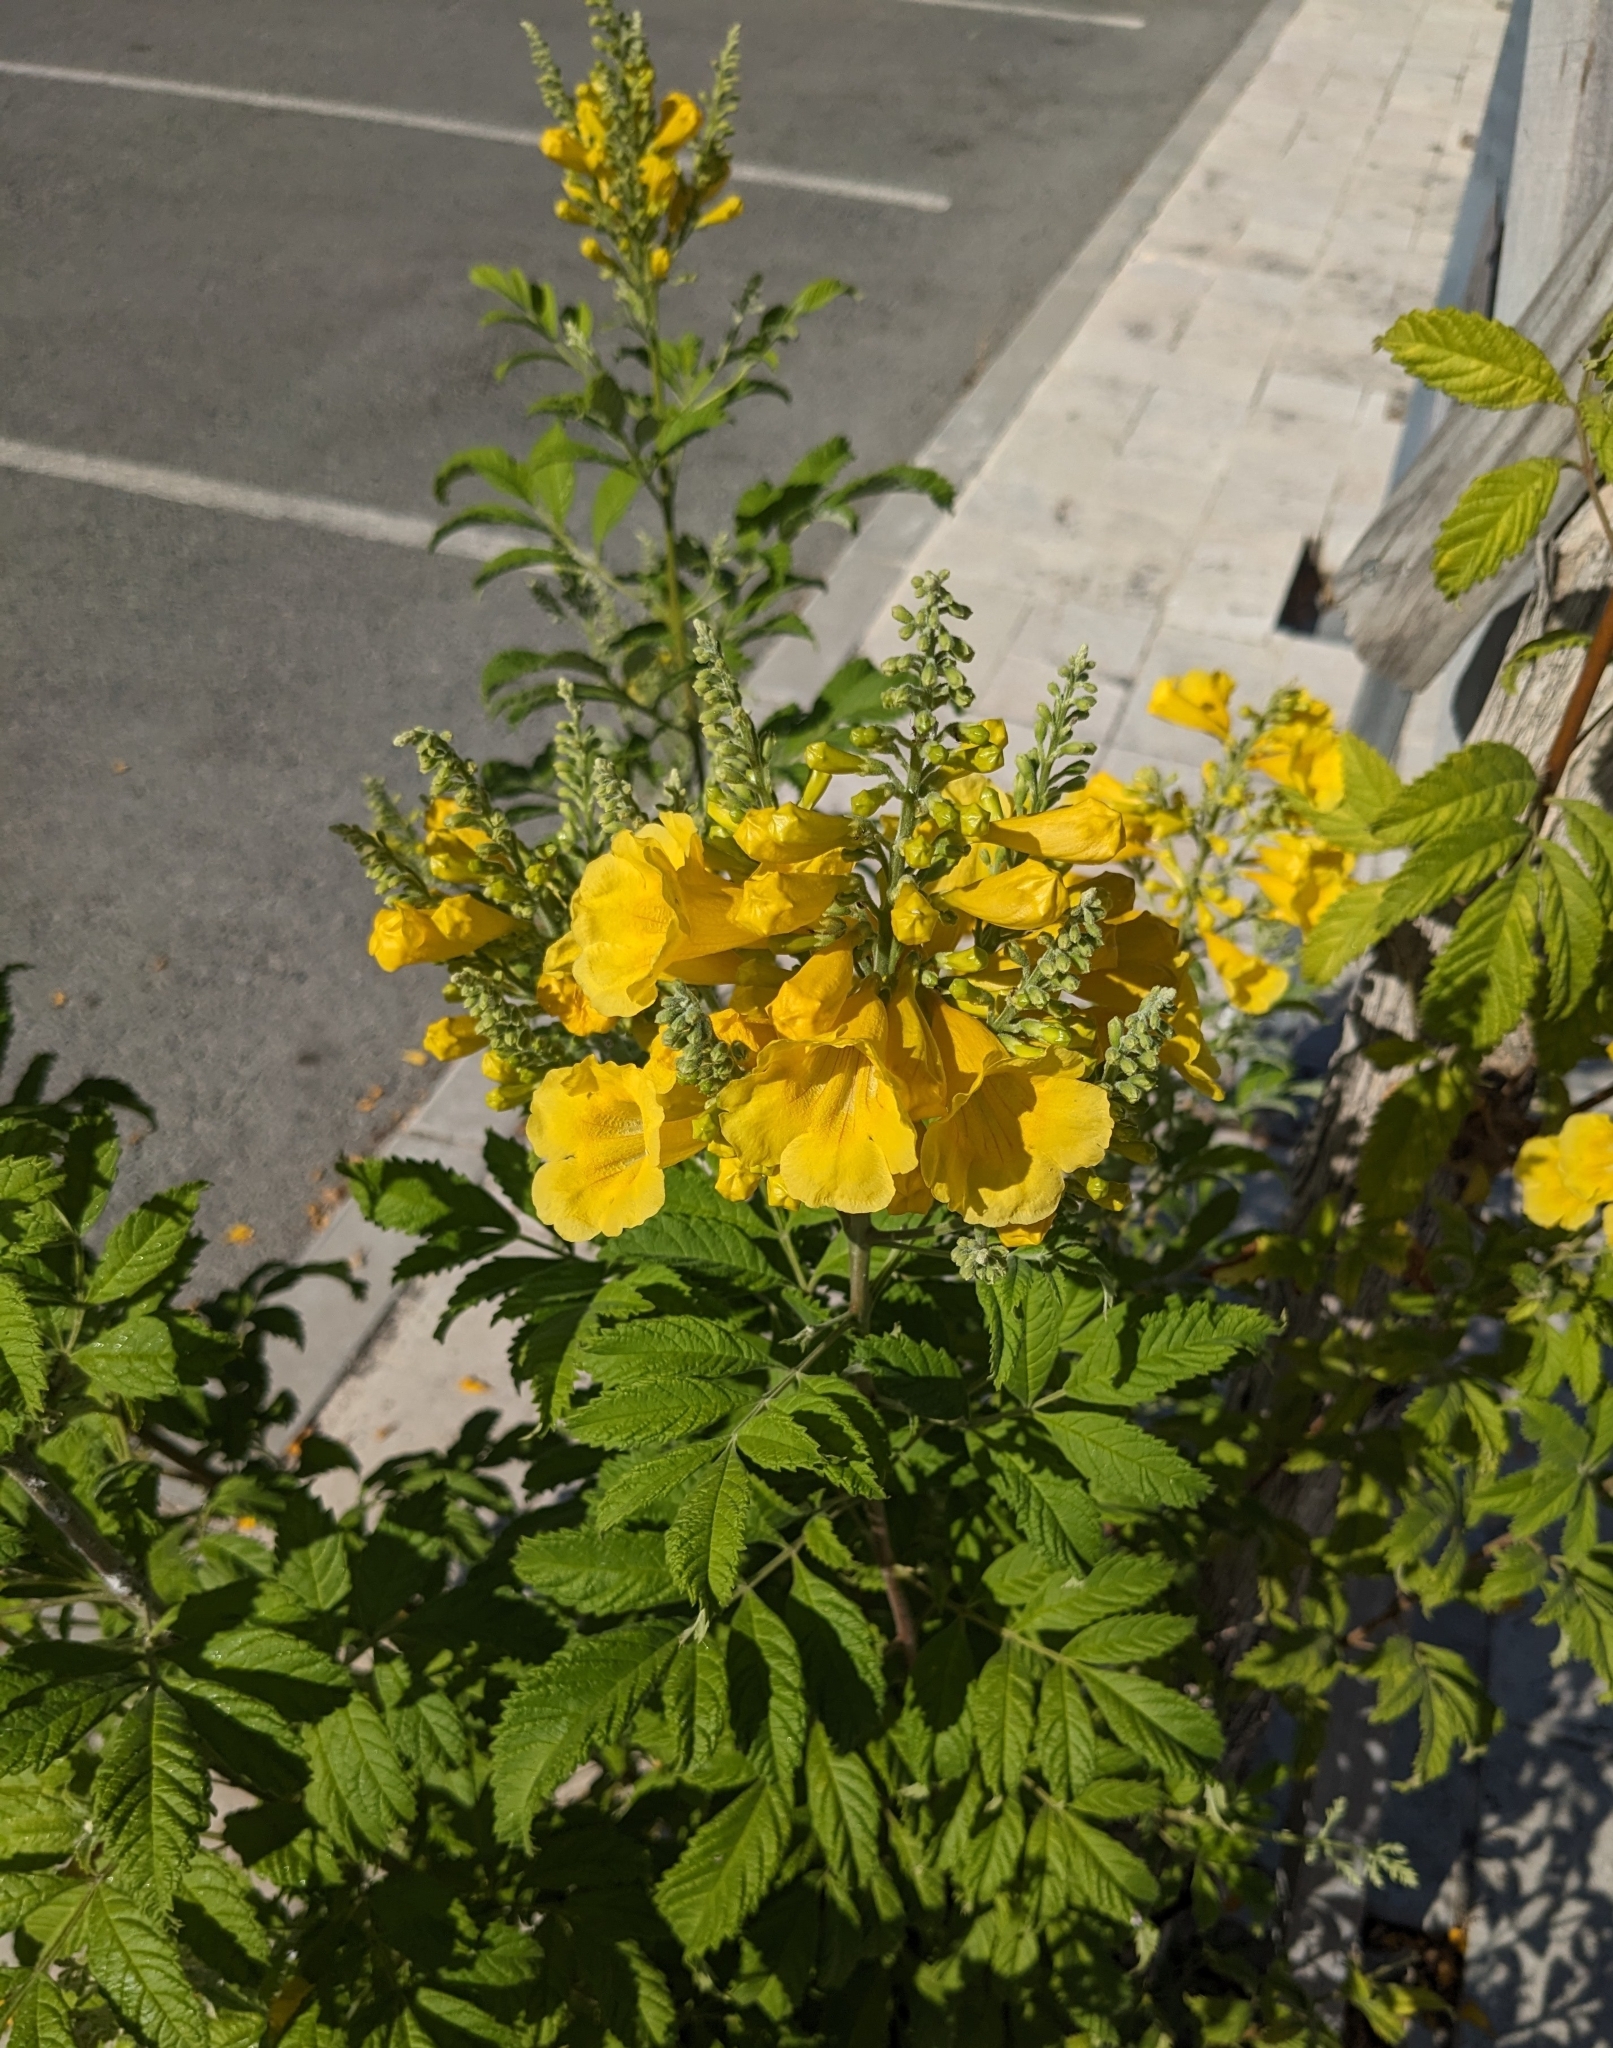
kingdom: Plantae
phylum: Tracheophyta
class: Magnoliopsida
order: Lamiales
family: Bignoniaceae
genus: Tecoma
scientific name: Tecoma stans
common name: Yellow trumpetbush
